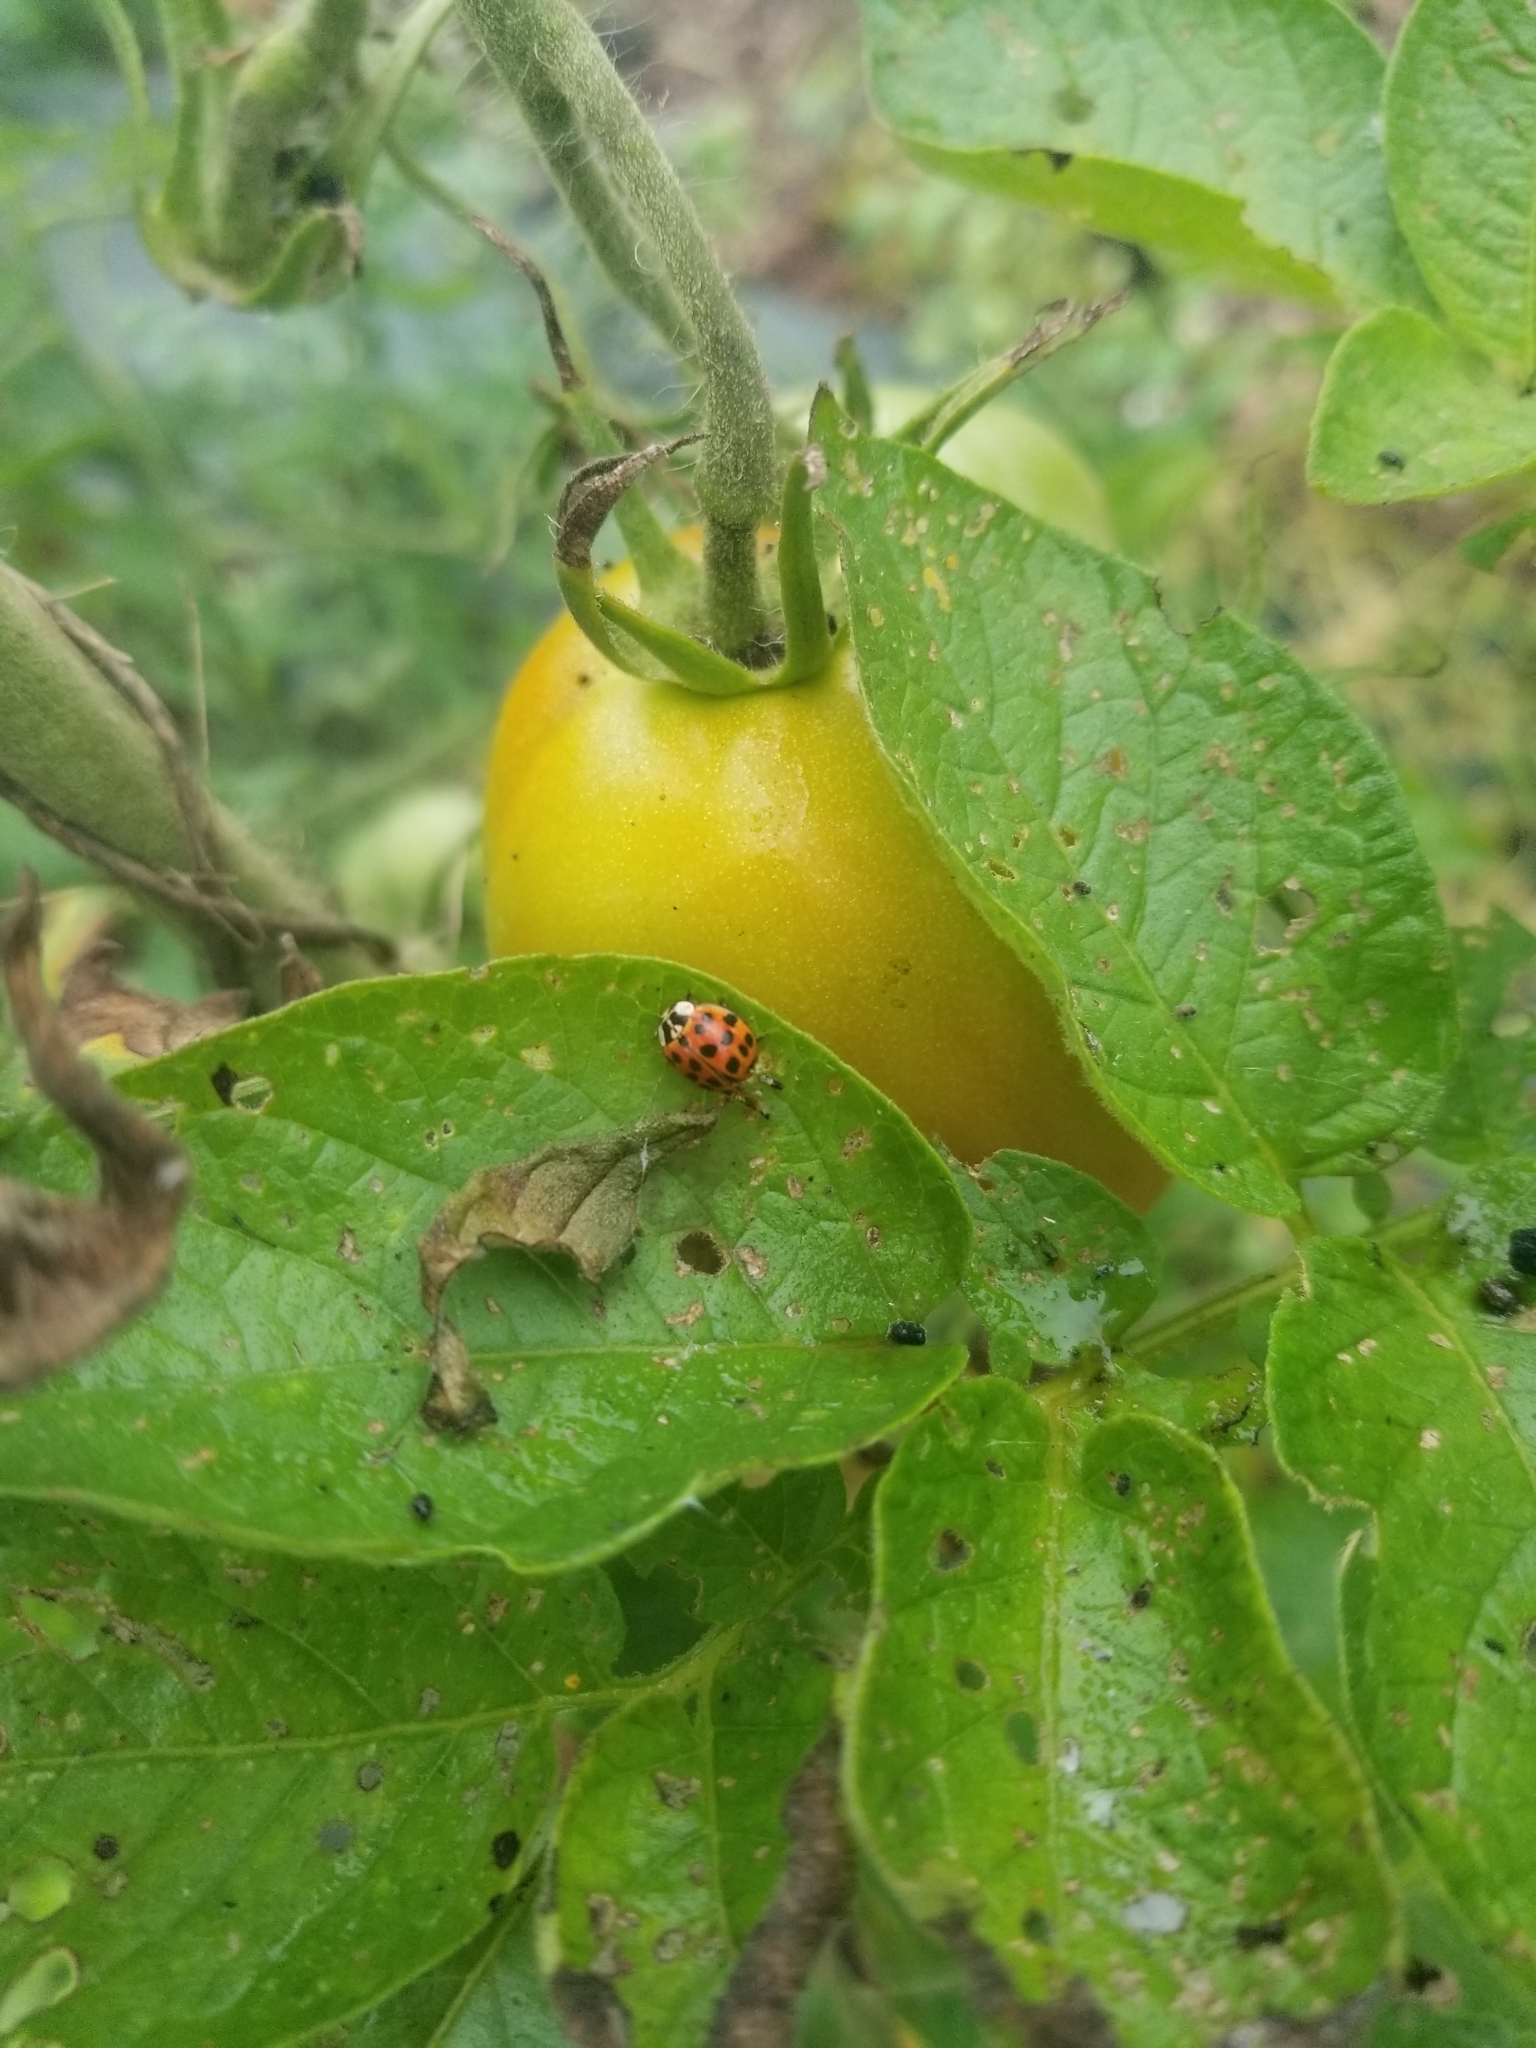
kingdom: Animalia
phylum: Arthropoda
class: Insecta
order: Coleoptera
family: Coccinellidae
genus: Harmonia
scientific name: Harmonia axyridis
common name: Harlequin ladybird
